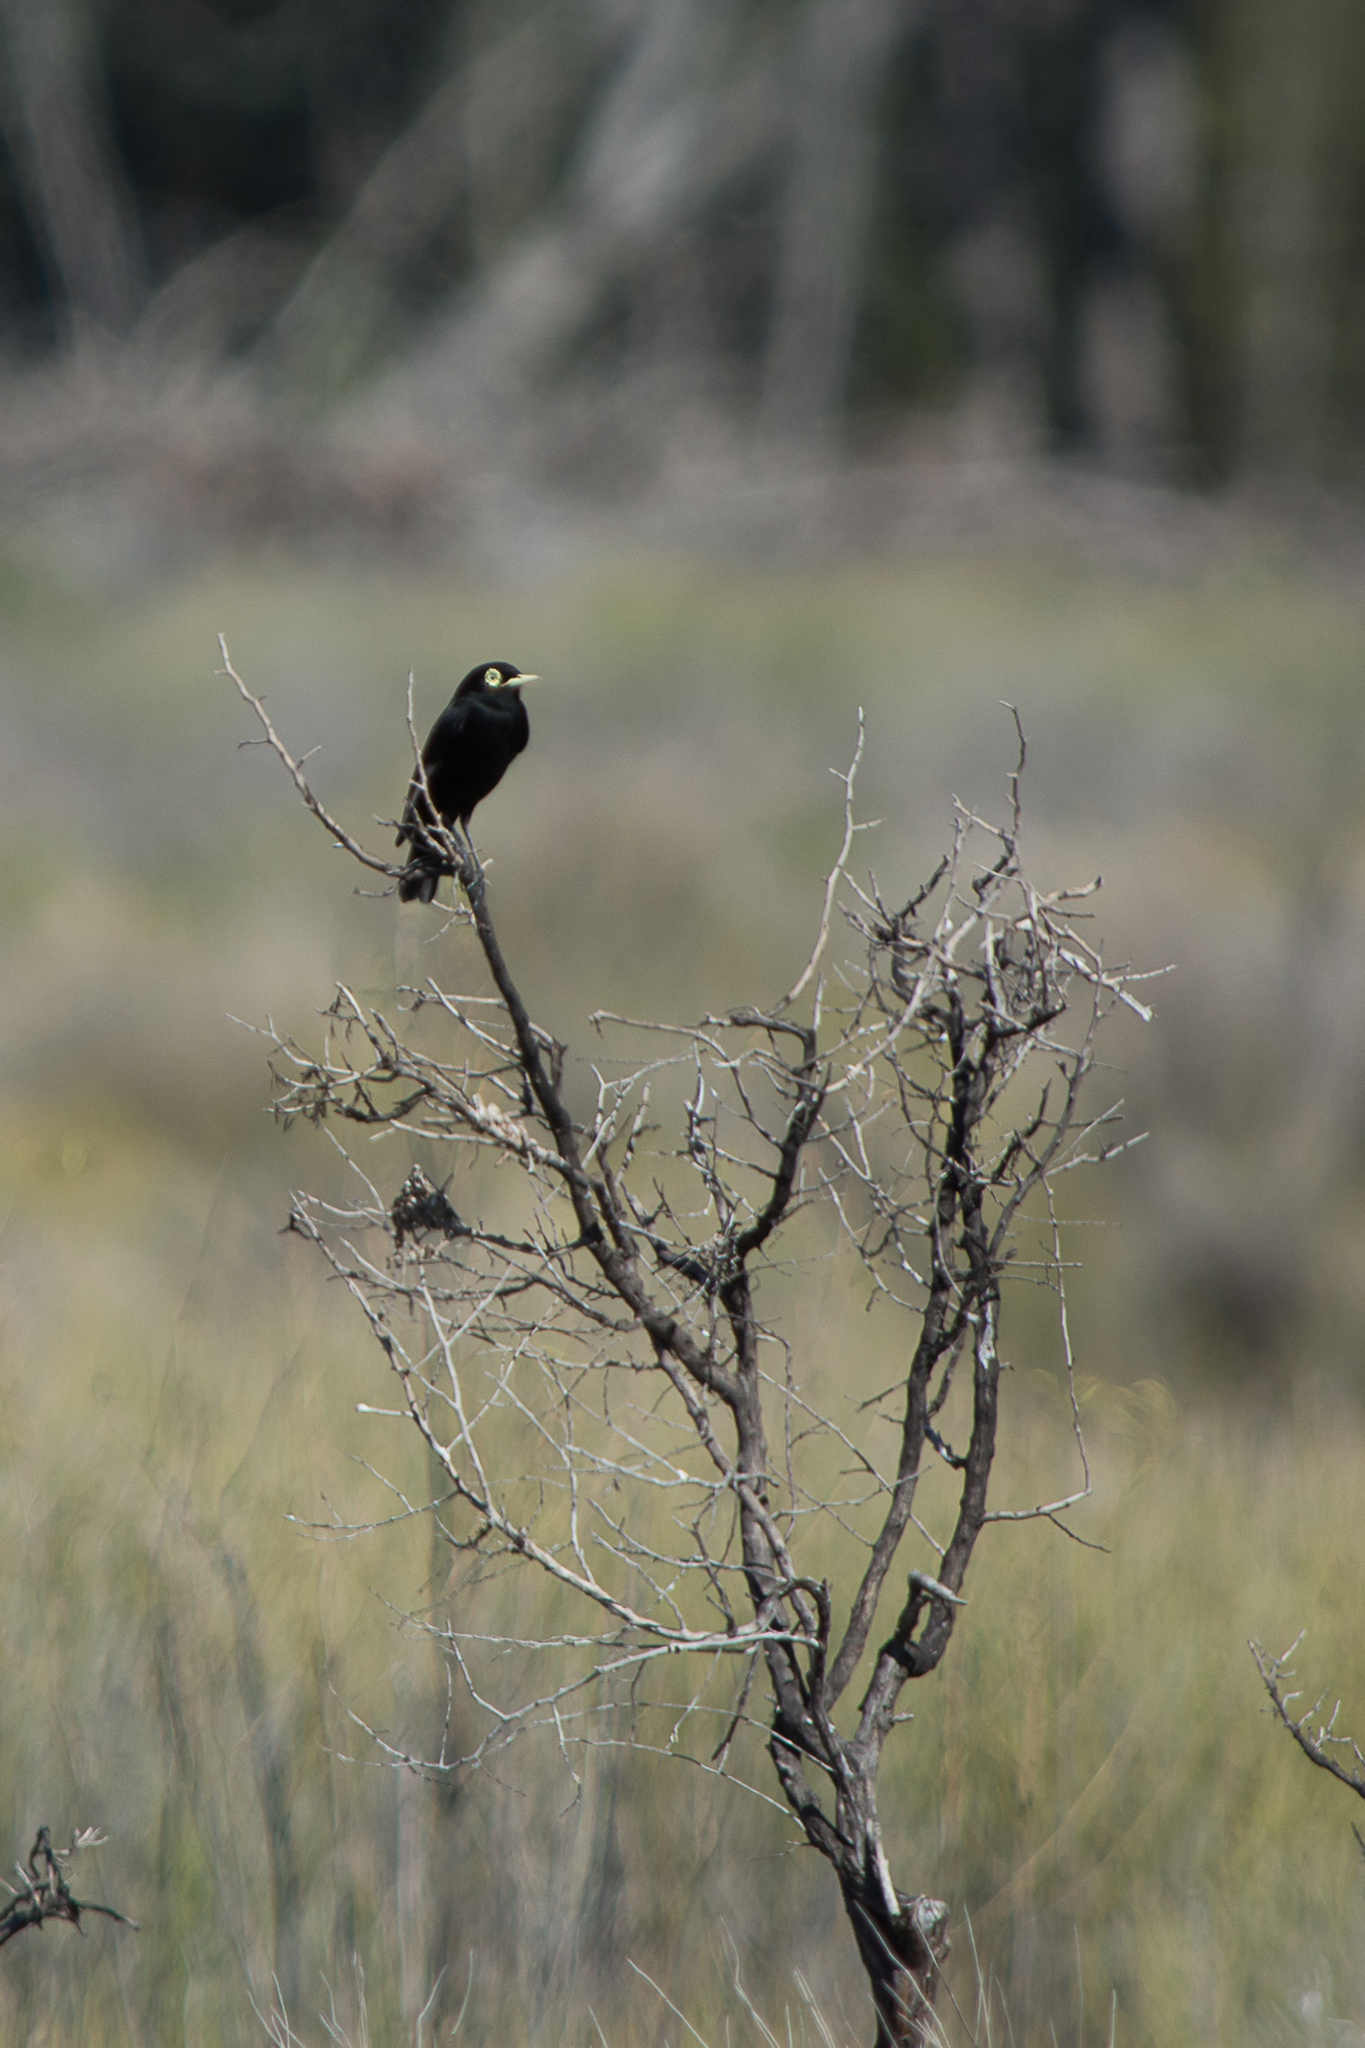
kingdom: Animalia
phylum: Chordata
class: Aves
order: Passeriformes
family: Tyrannidae
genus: Hymenops
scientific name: Hymenops perspicillatus
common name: Spectacled tyrant
